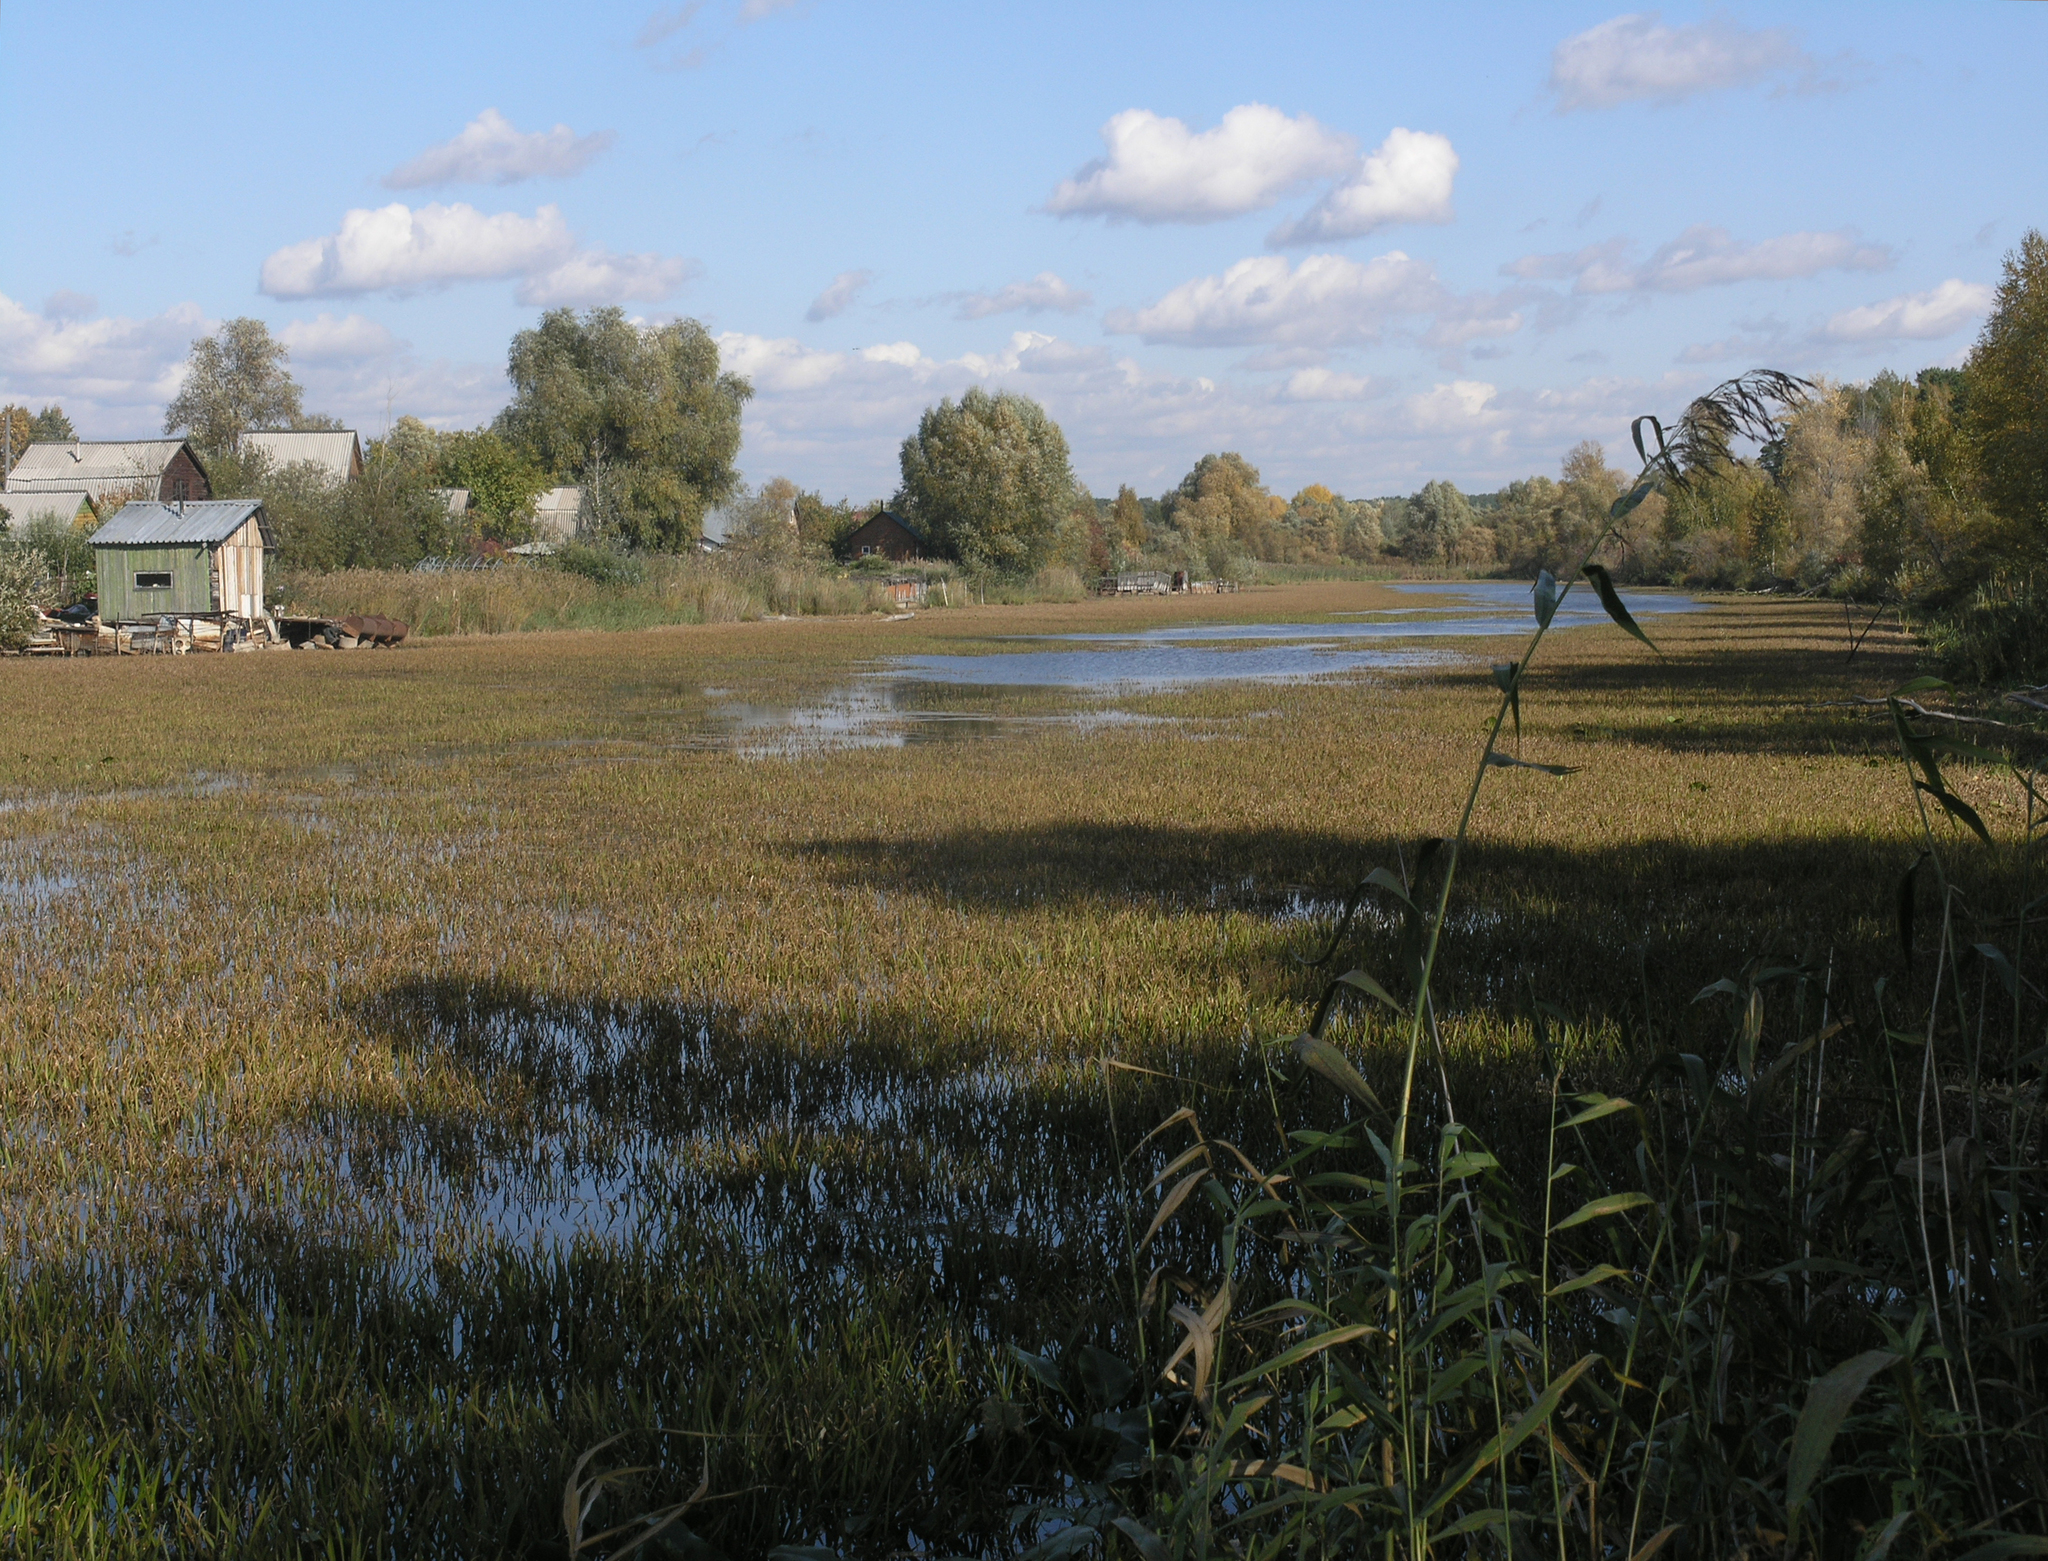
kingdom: Plantae
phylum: Tracheophyta
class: Liliopsida
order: Poales
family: Poaceae
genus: Phragmites
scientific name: Phragmites australis
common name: Common reed
